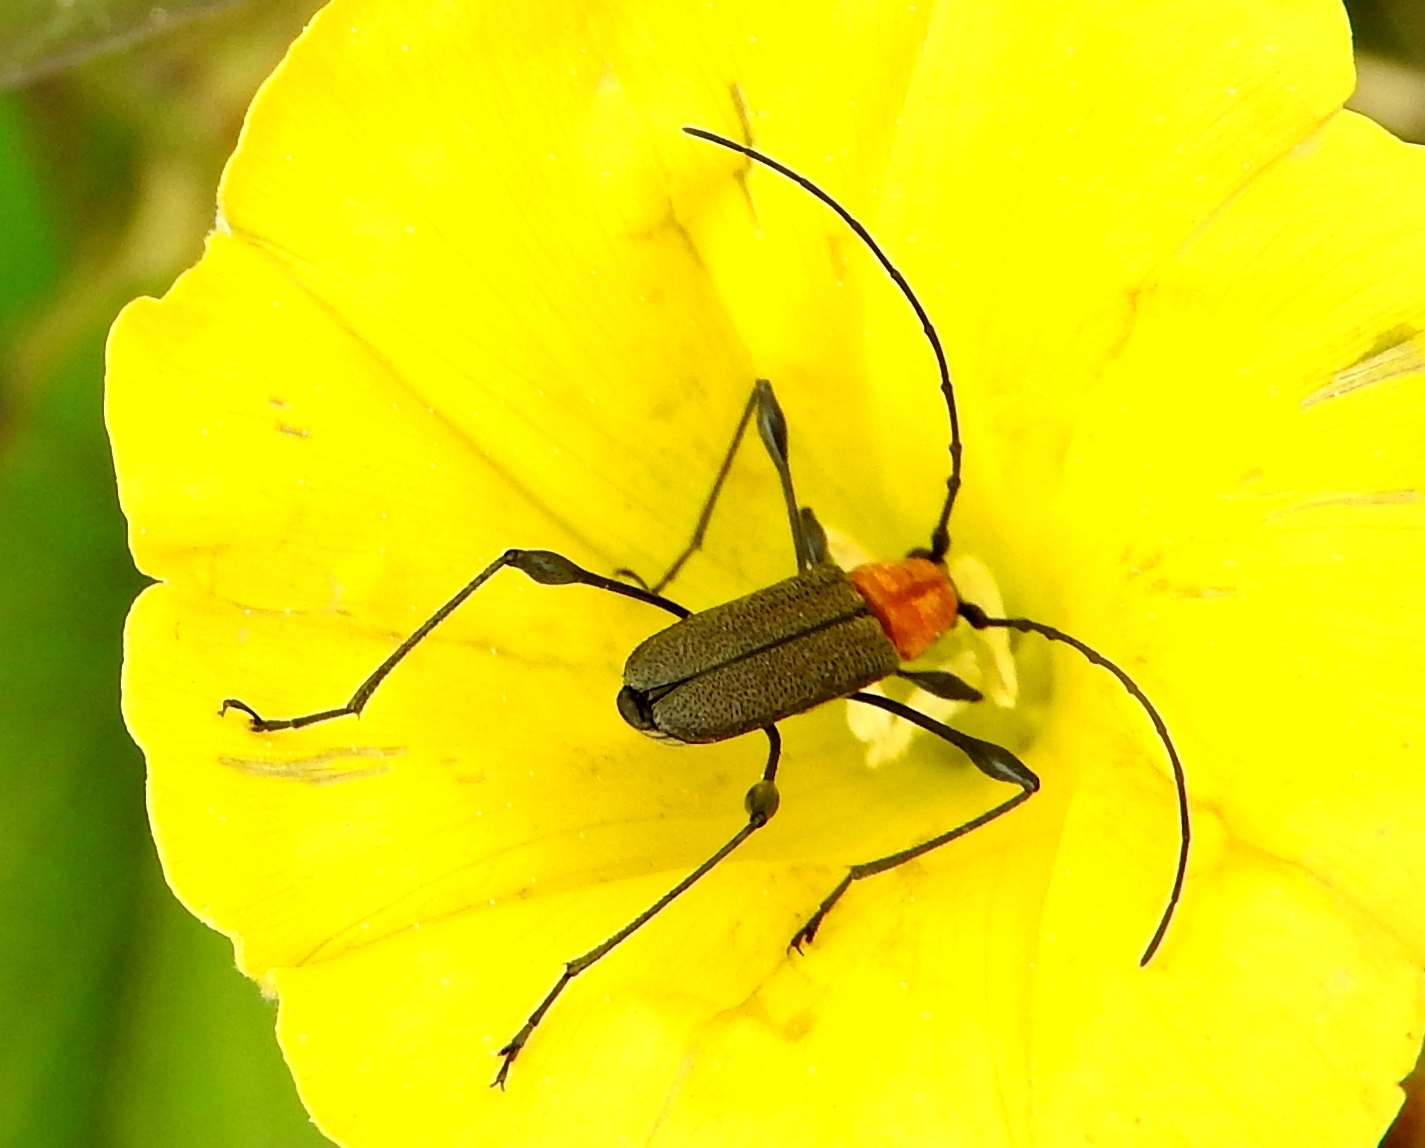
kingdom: Animalia
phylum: Arthropoda
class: Insecta
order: Coleoptera
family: Cerambycidae
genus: Rhopalophora
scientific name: Rhopalophora meeskei
